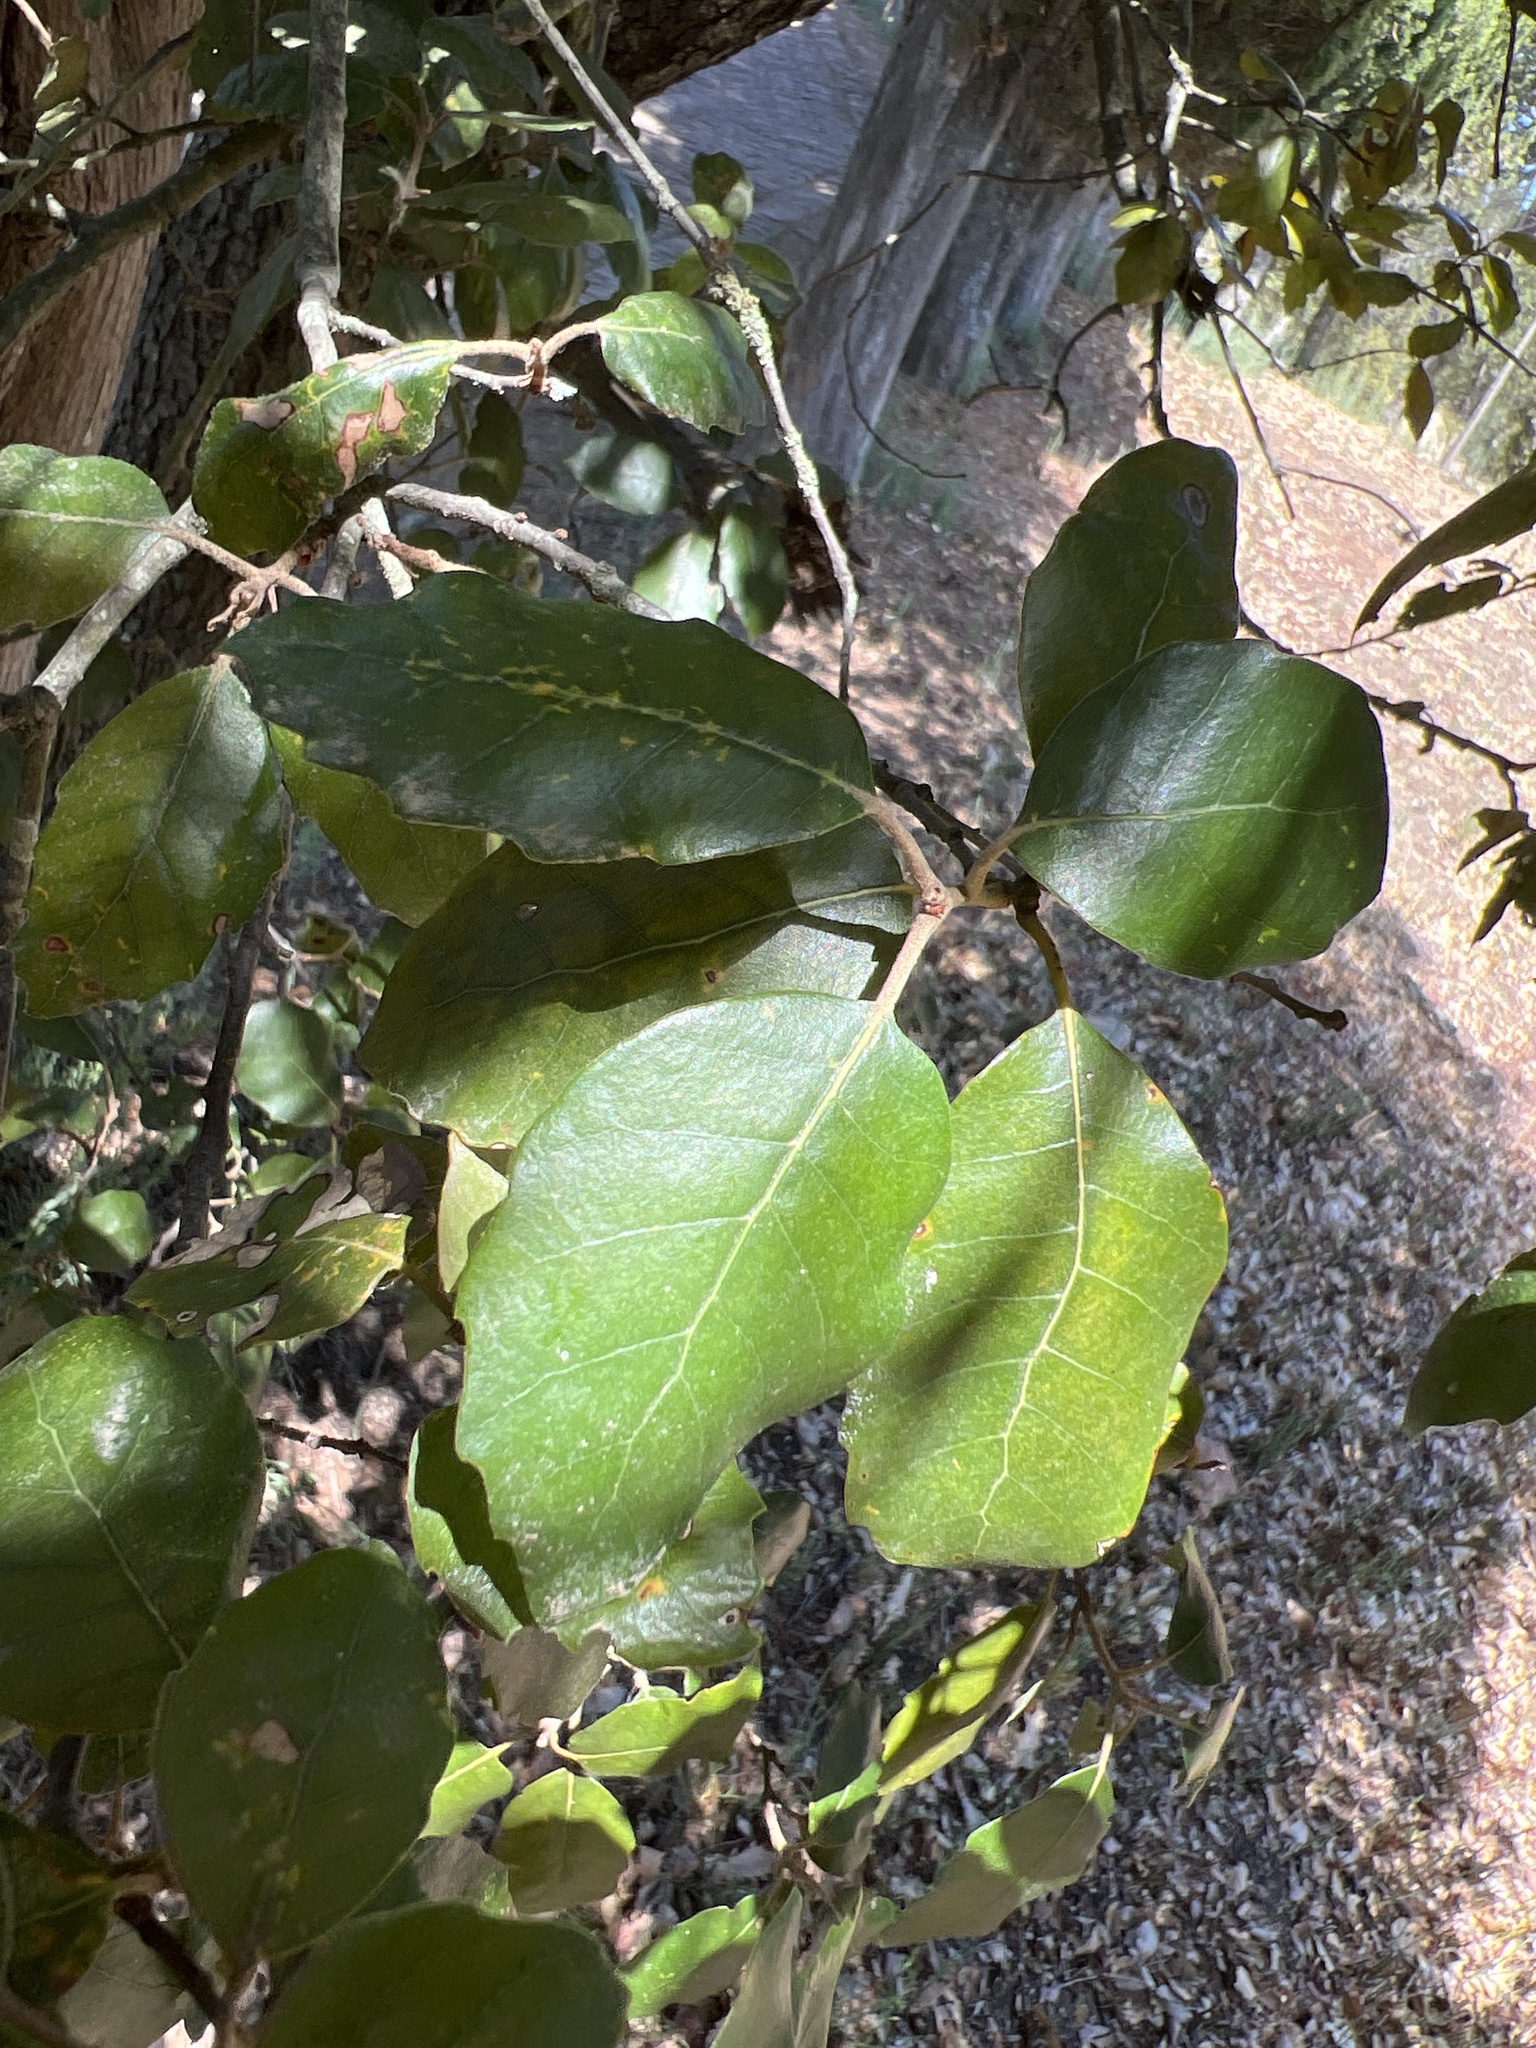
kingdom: Plantae
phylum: Tracheophyta
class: Magnoliopsida
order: Fagales
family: Fagaceae
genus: Quercus
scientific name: Quercus suber
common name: Cork oak
